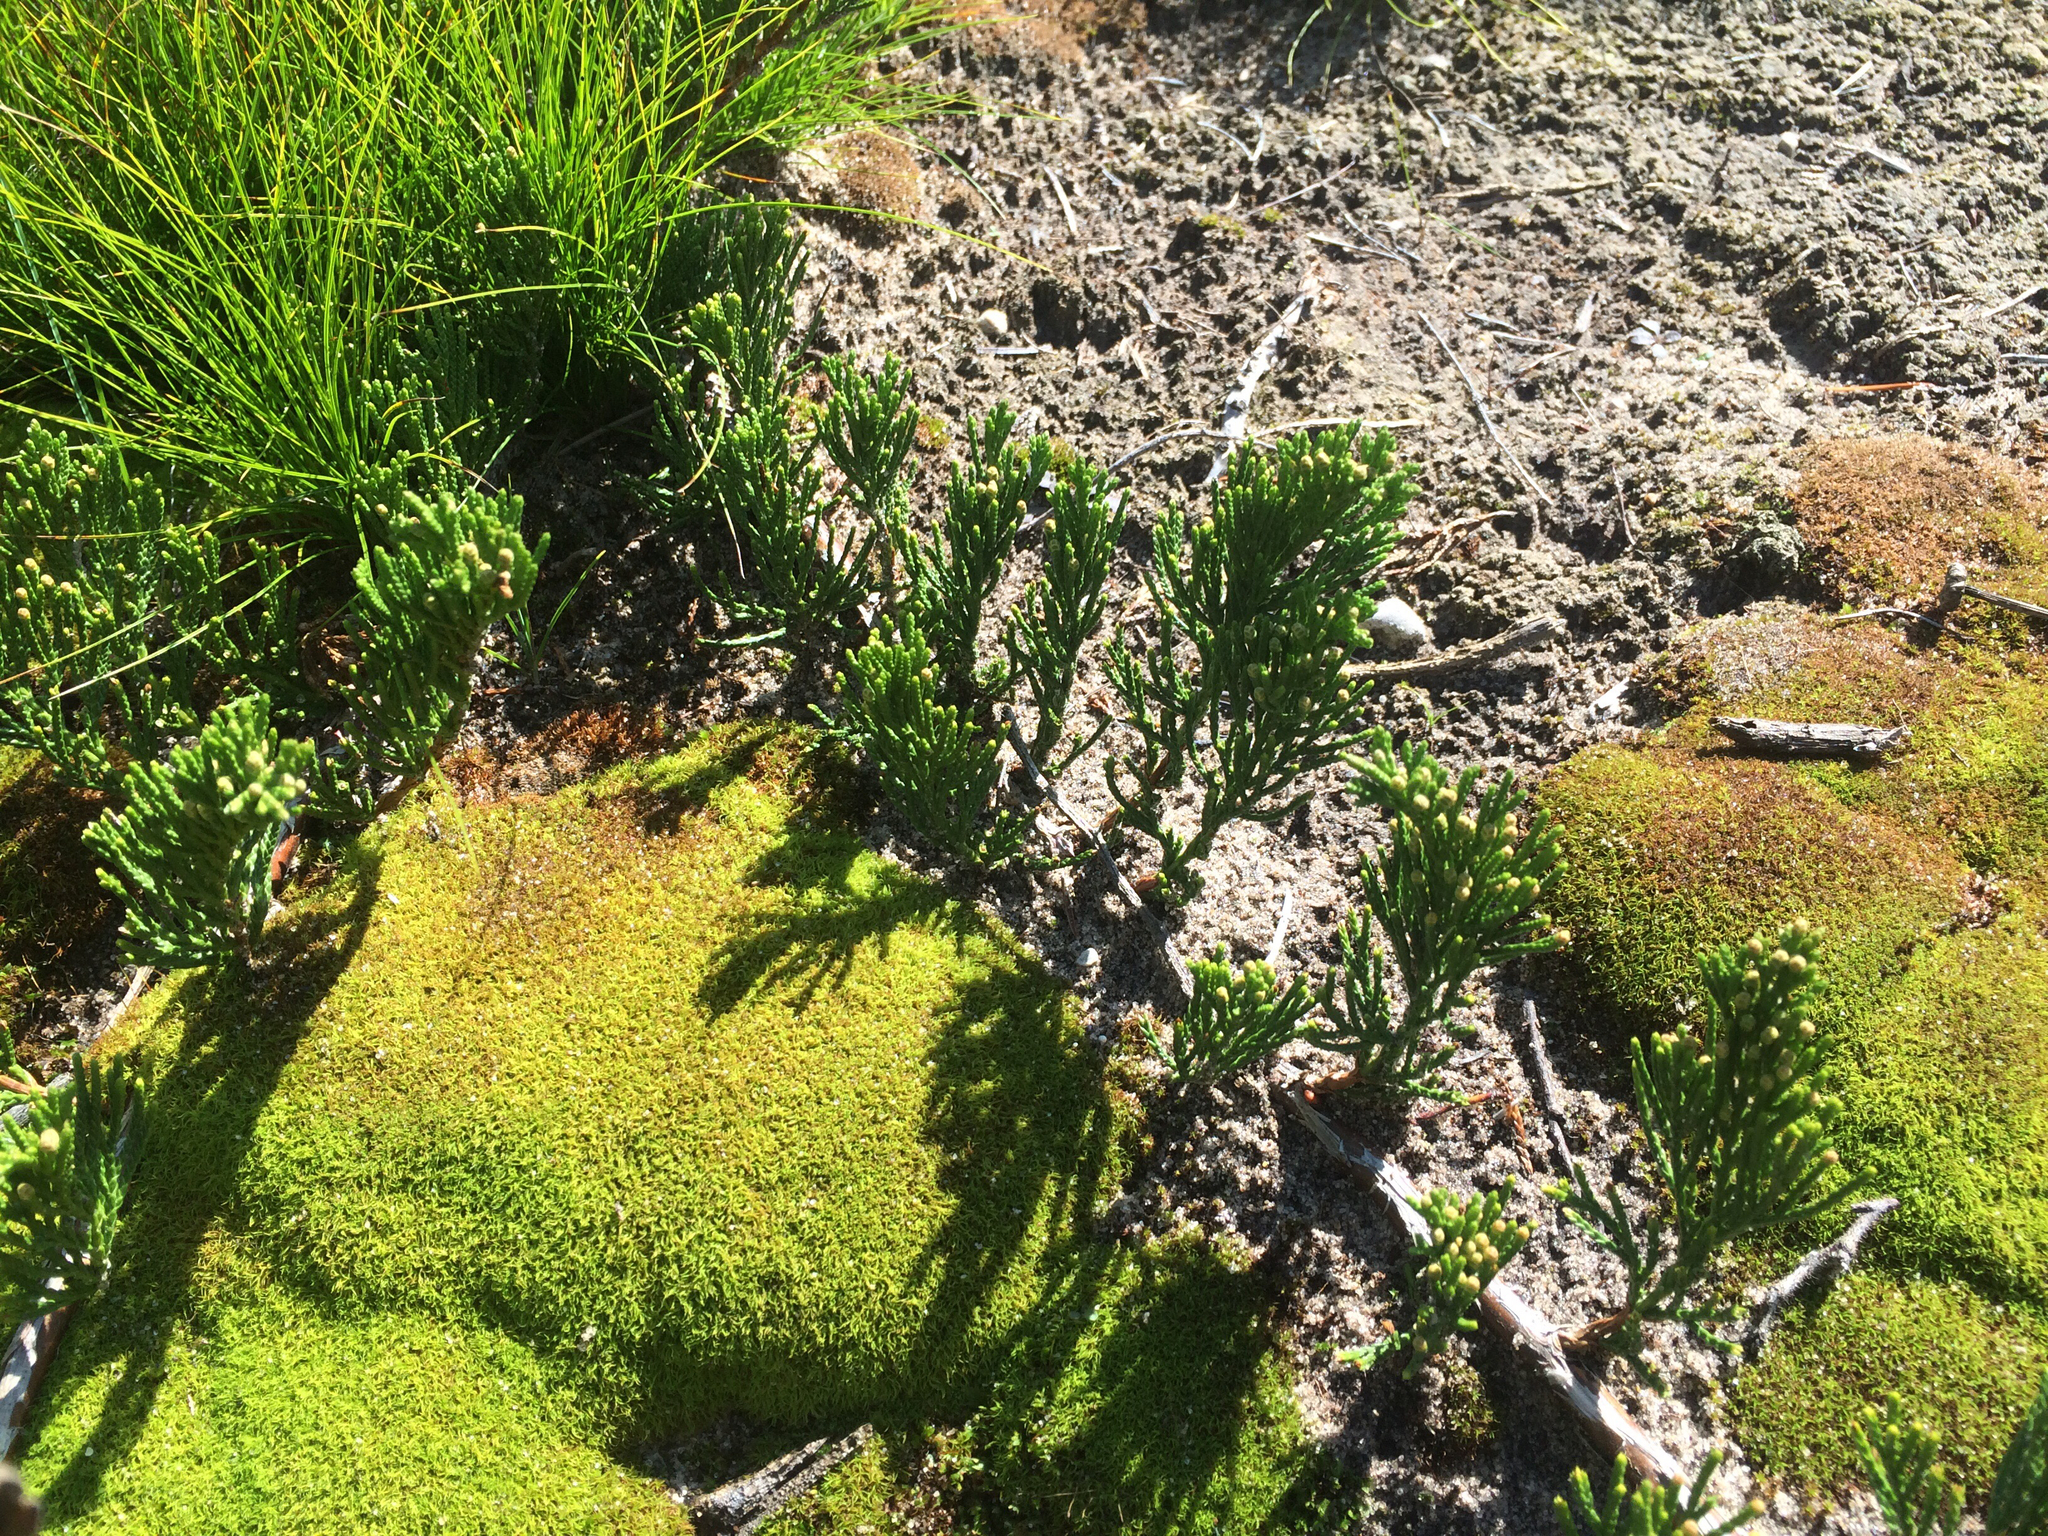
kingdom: Plantae
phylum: Tracheophyta
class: Pinopsida
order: Pinales
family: Cupressaceae
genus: Juniperus
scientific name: Juniperus horizontalis
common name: Creeping juniper
